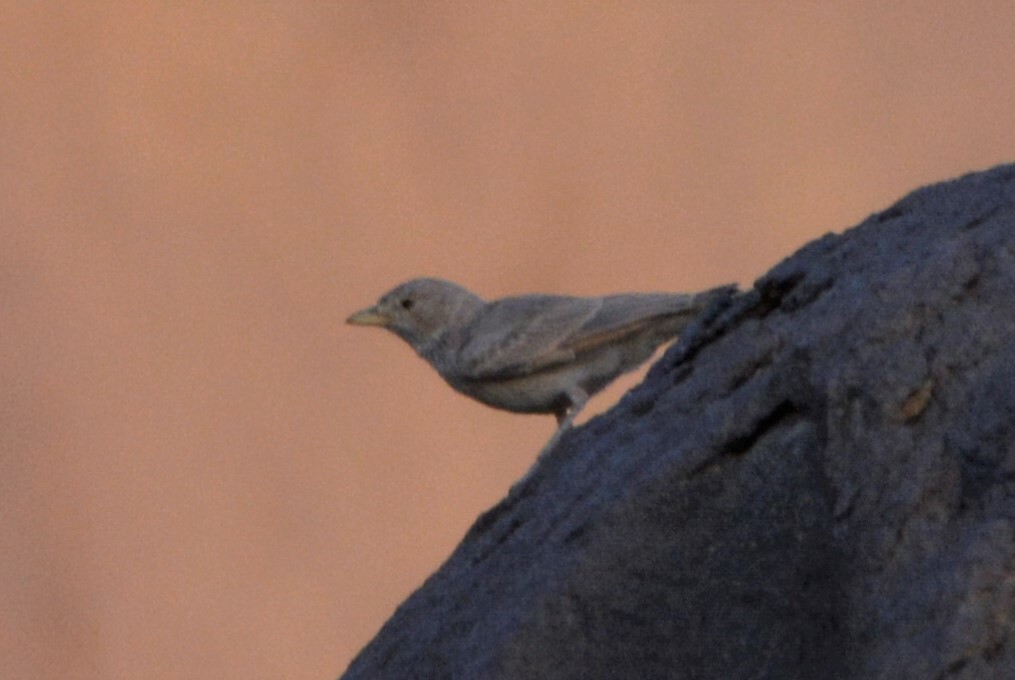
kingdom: Animalia
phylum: Chordata
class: Aves
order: Passeriformes
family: Alaudidae
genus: Ammomanes
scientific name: Ammomanes deserti
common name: Desert lark
